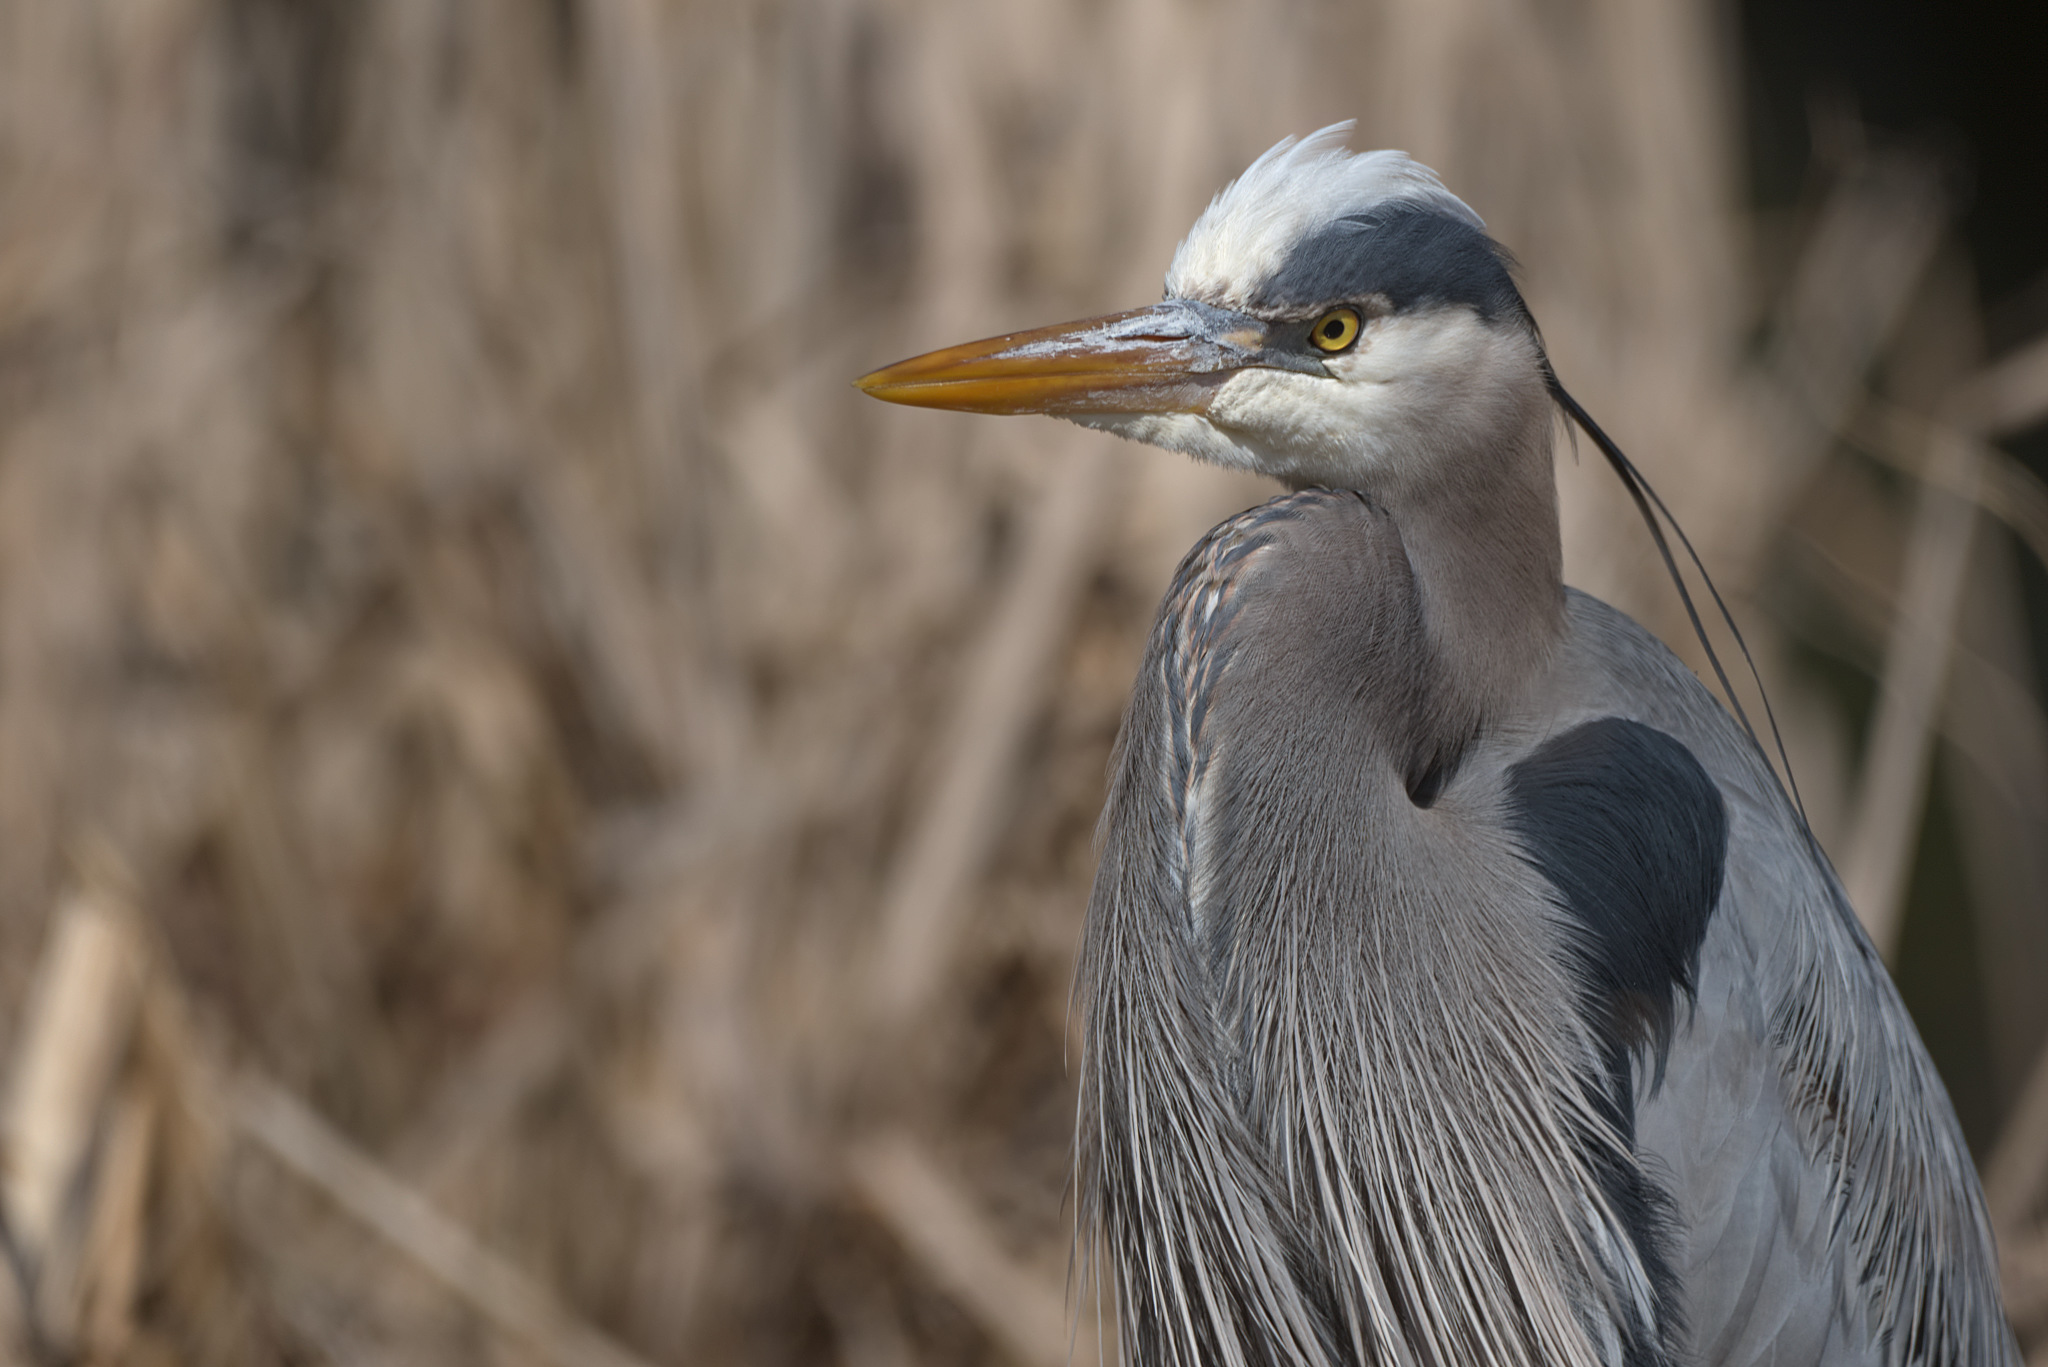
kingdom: Animalia
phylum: Chordata
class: Aves
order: Pelecaniformes
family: Ardeidae
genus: Ardea
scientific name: Ardea herodias
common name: Great blue heron
